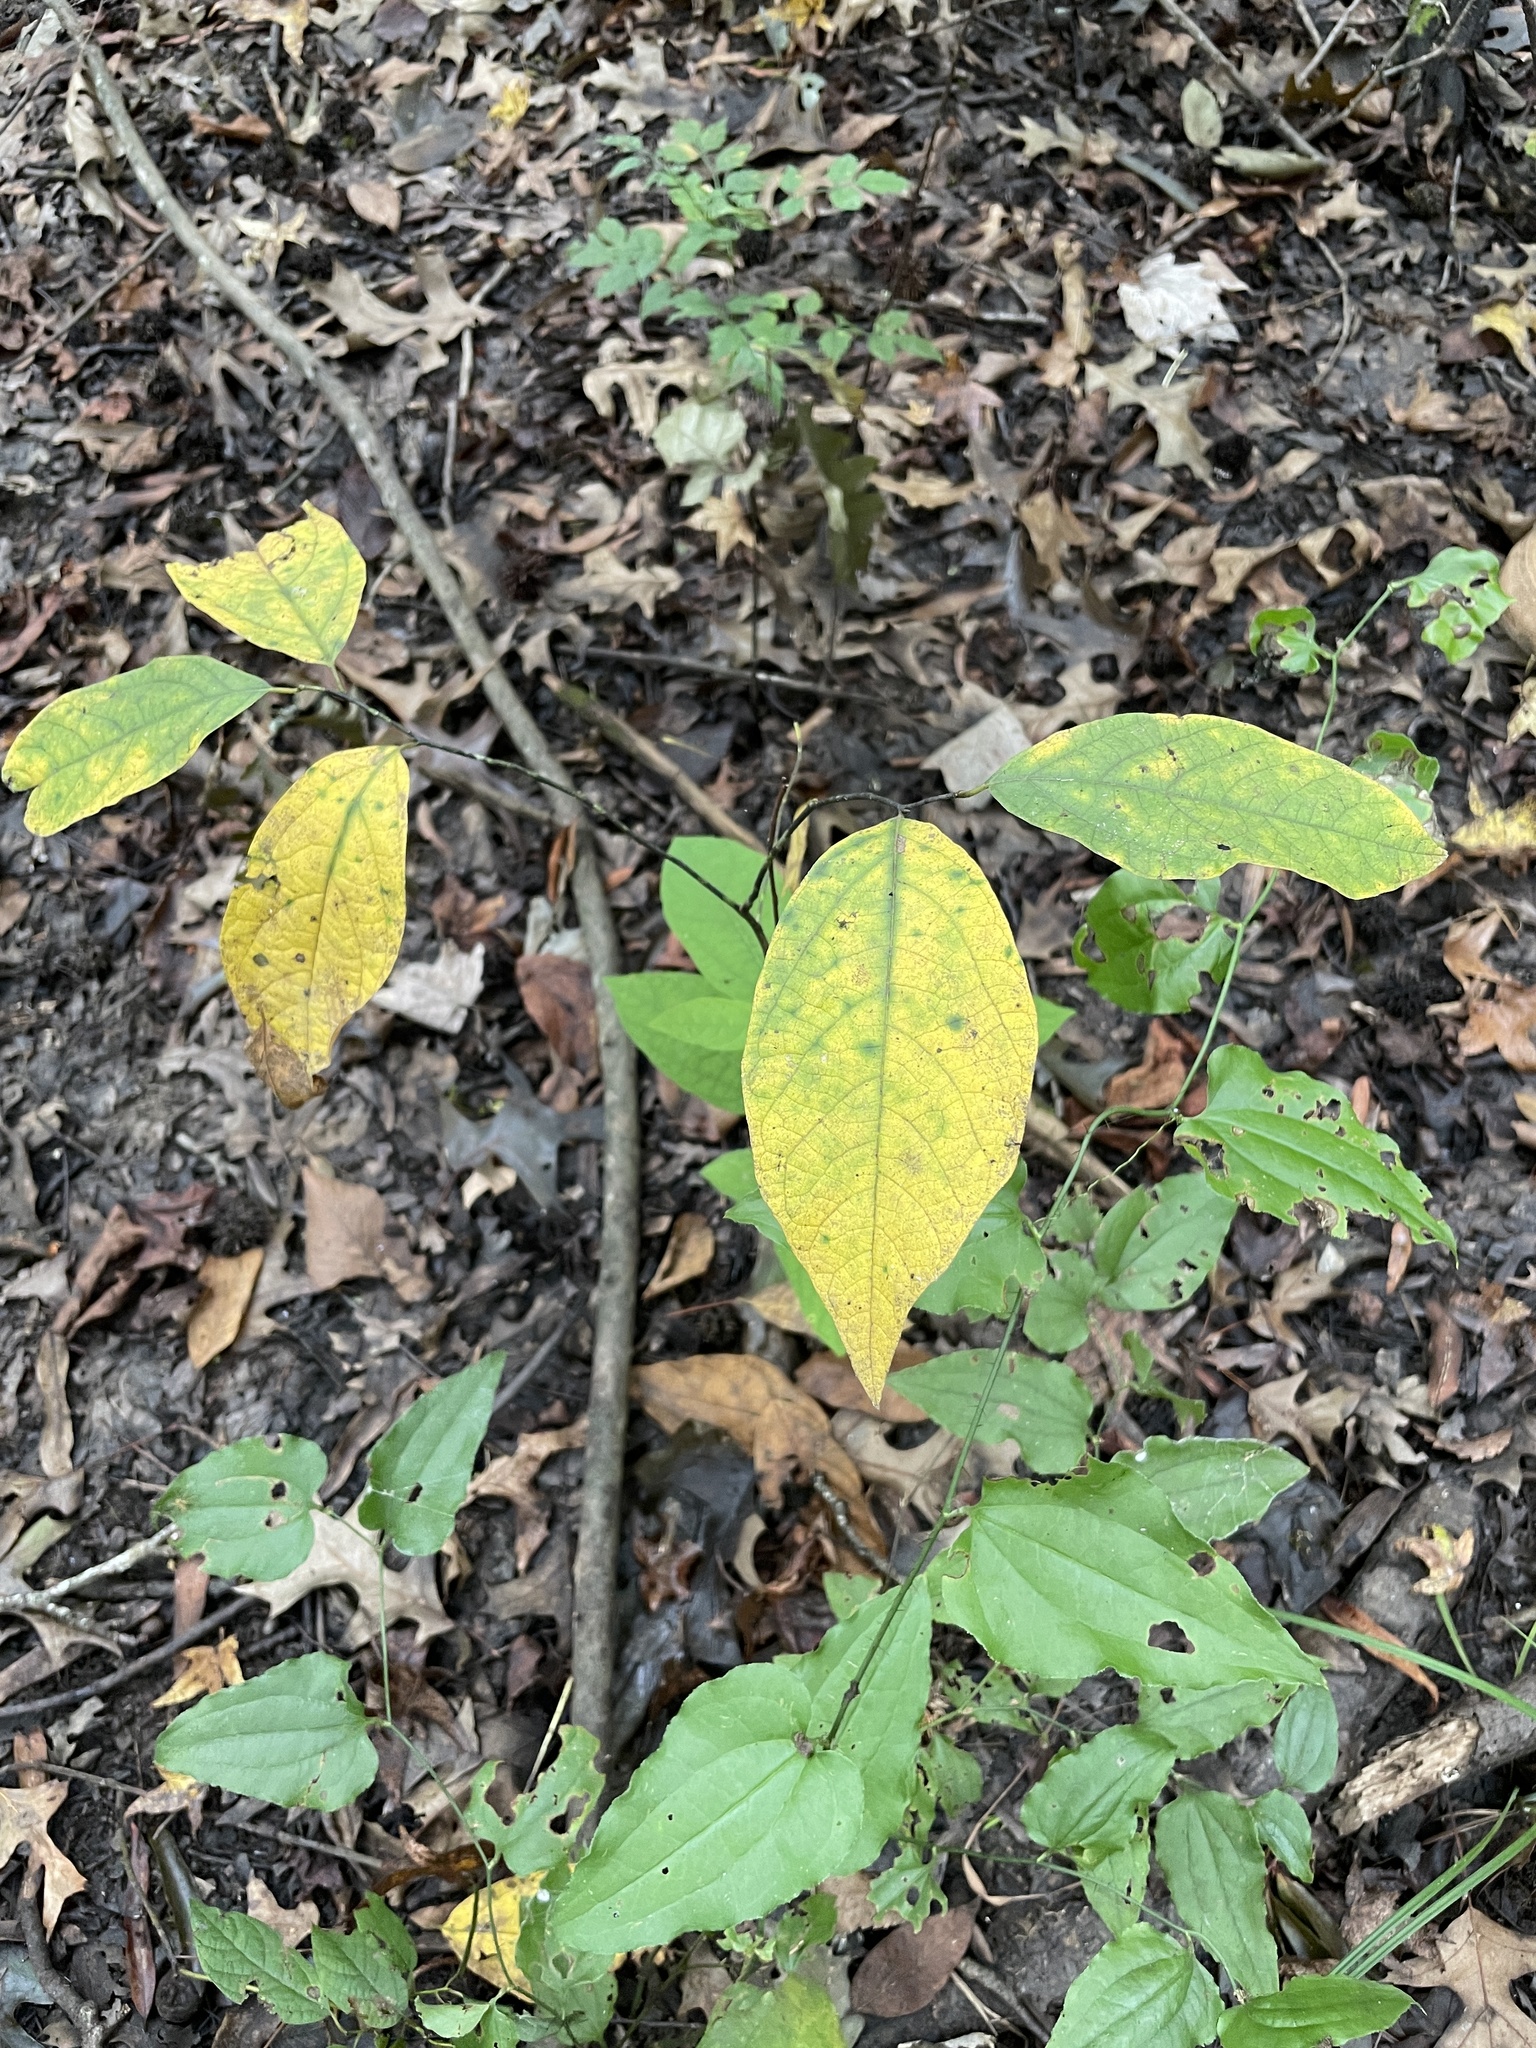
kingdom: Plantae
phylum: Tracheophyta
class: Magnoliopsida
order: Laurales
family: Lauraceae
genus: Lindera
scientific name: Lindera melissifolia
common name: Pondberry
